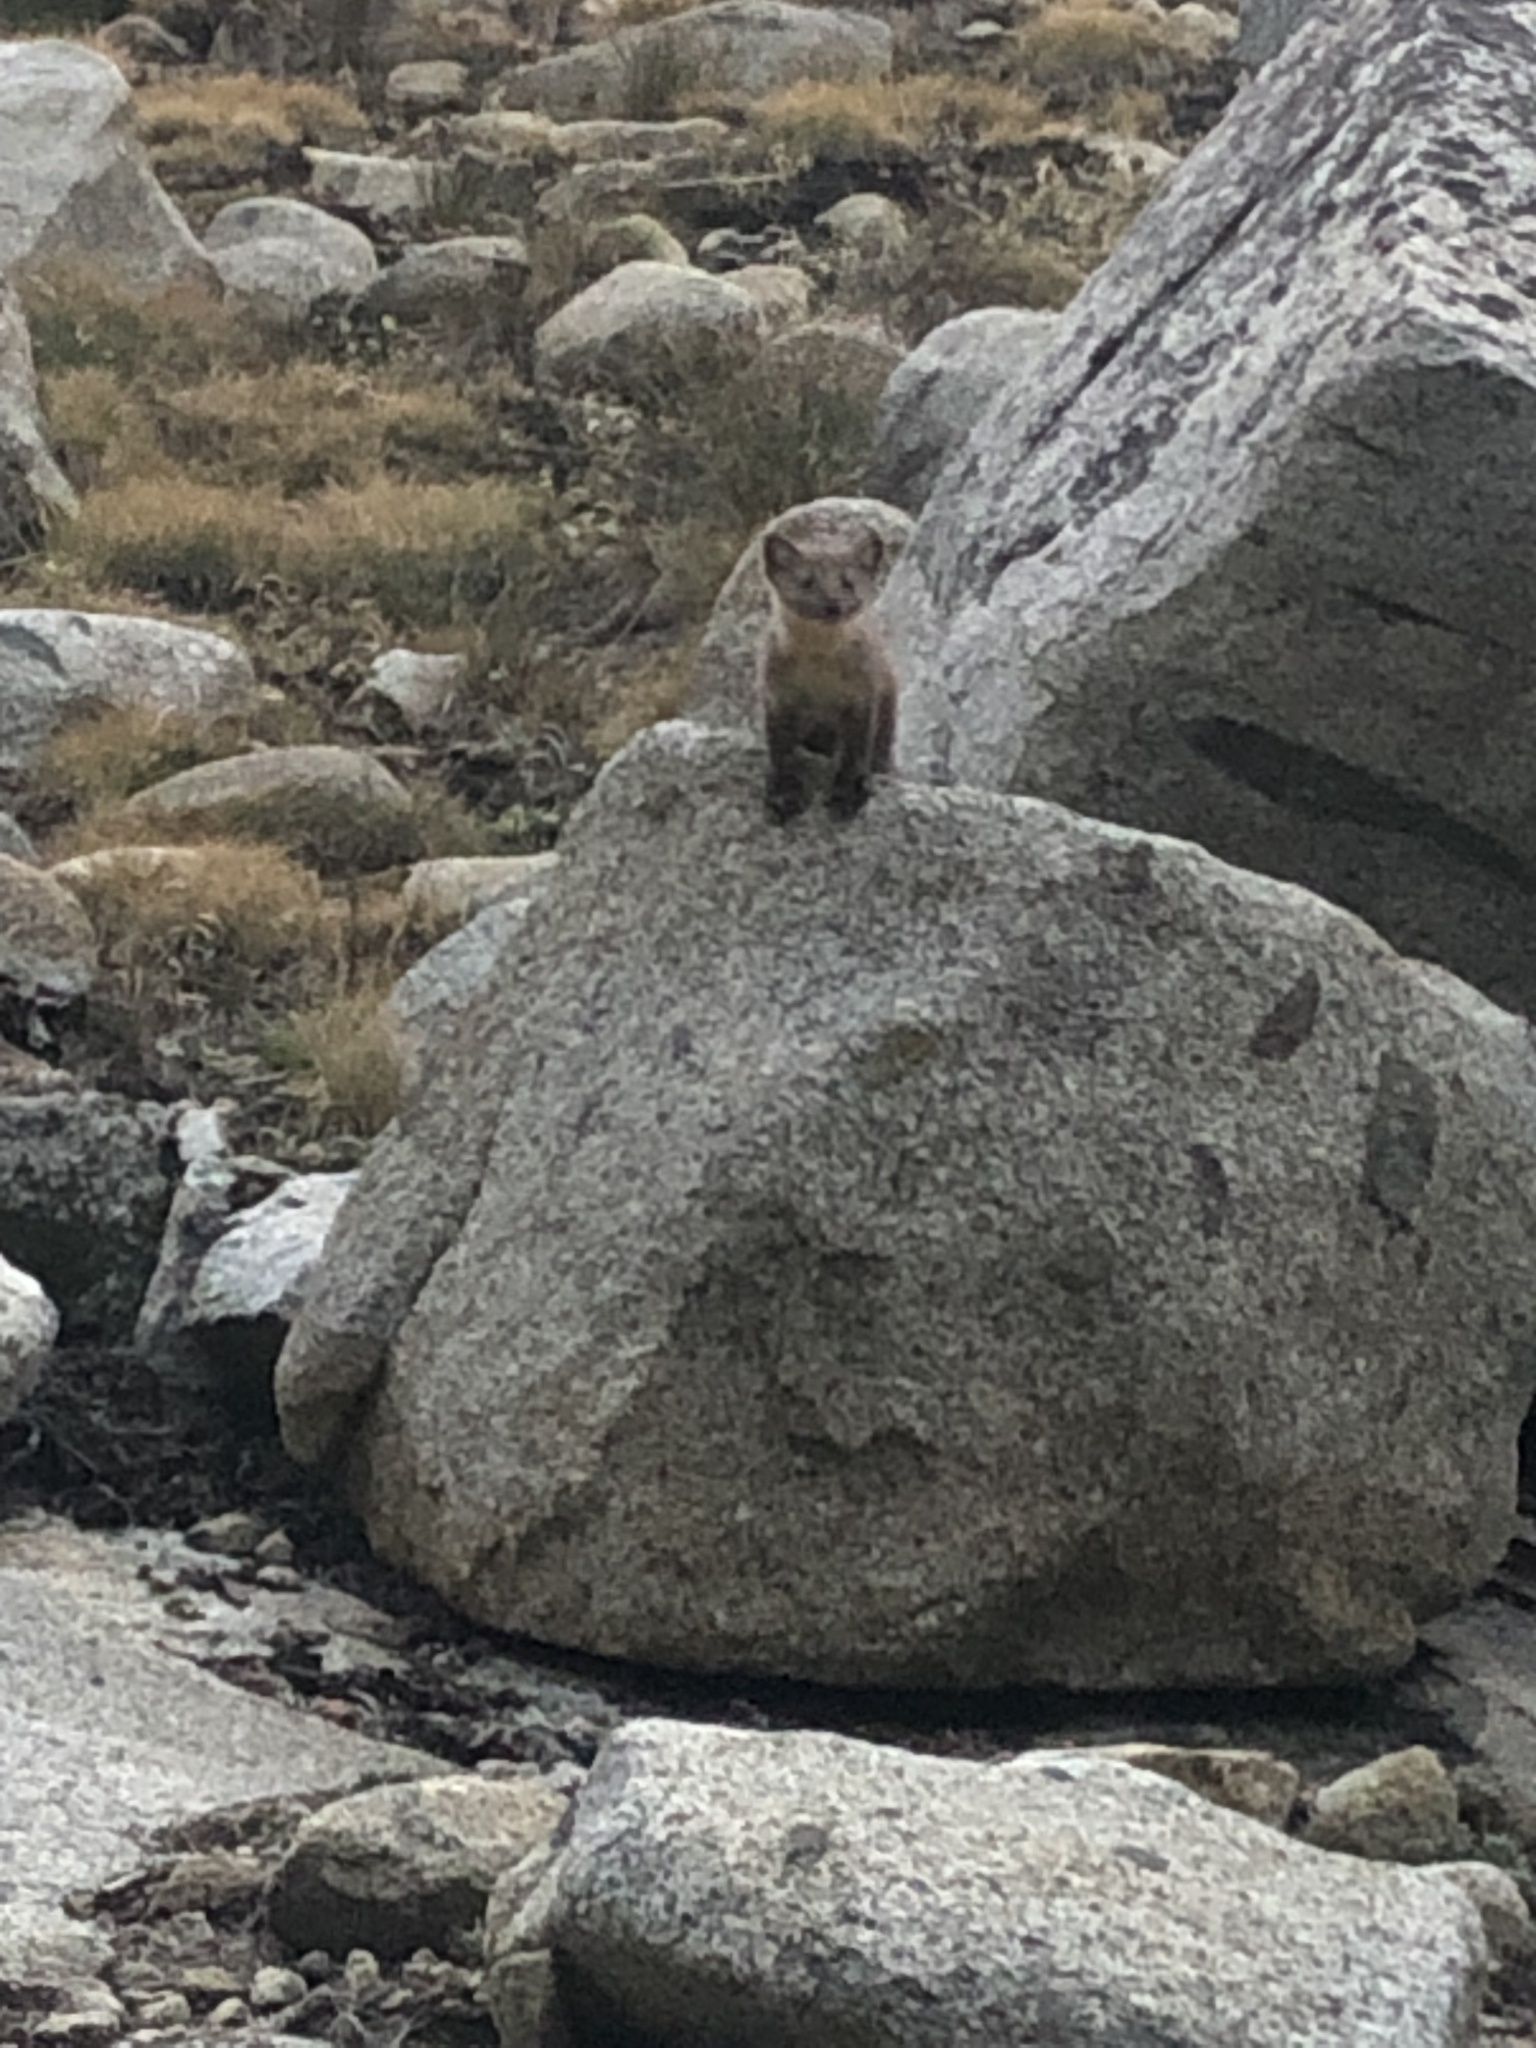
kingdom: Animalia
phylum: Chordata
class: Mammalia
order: Carnivora
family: Mustelidae
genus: Martes
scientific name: Martes caurina
